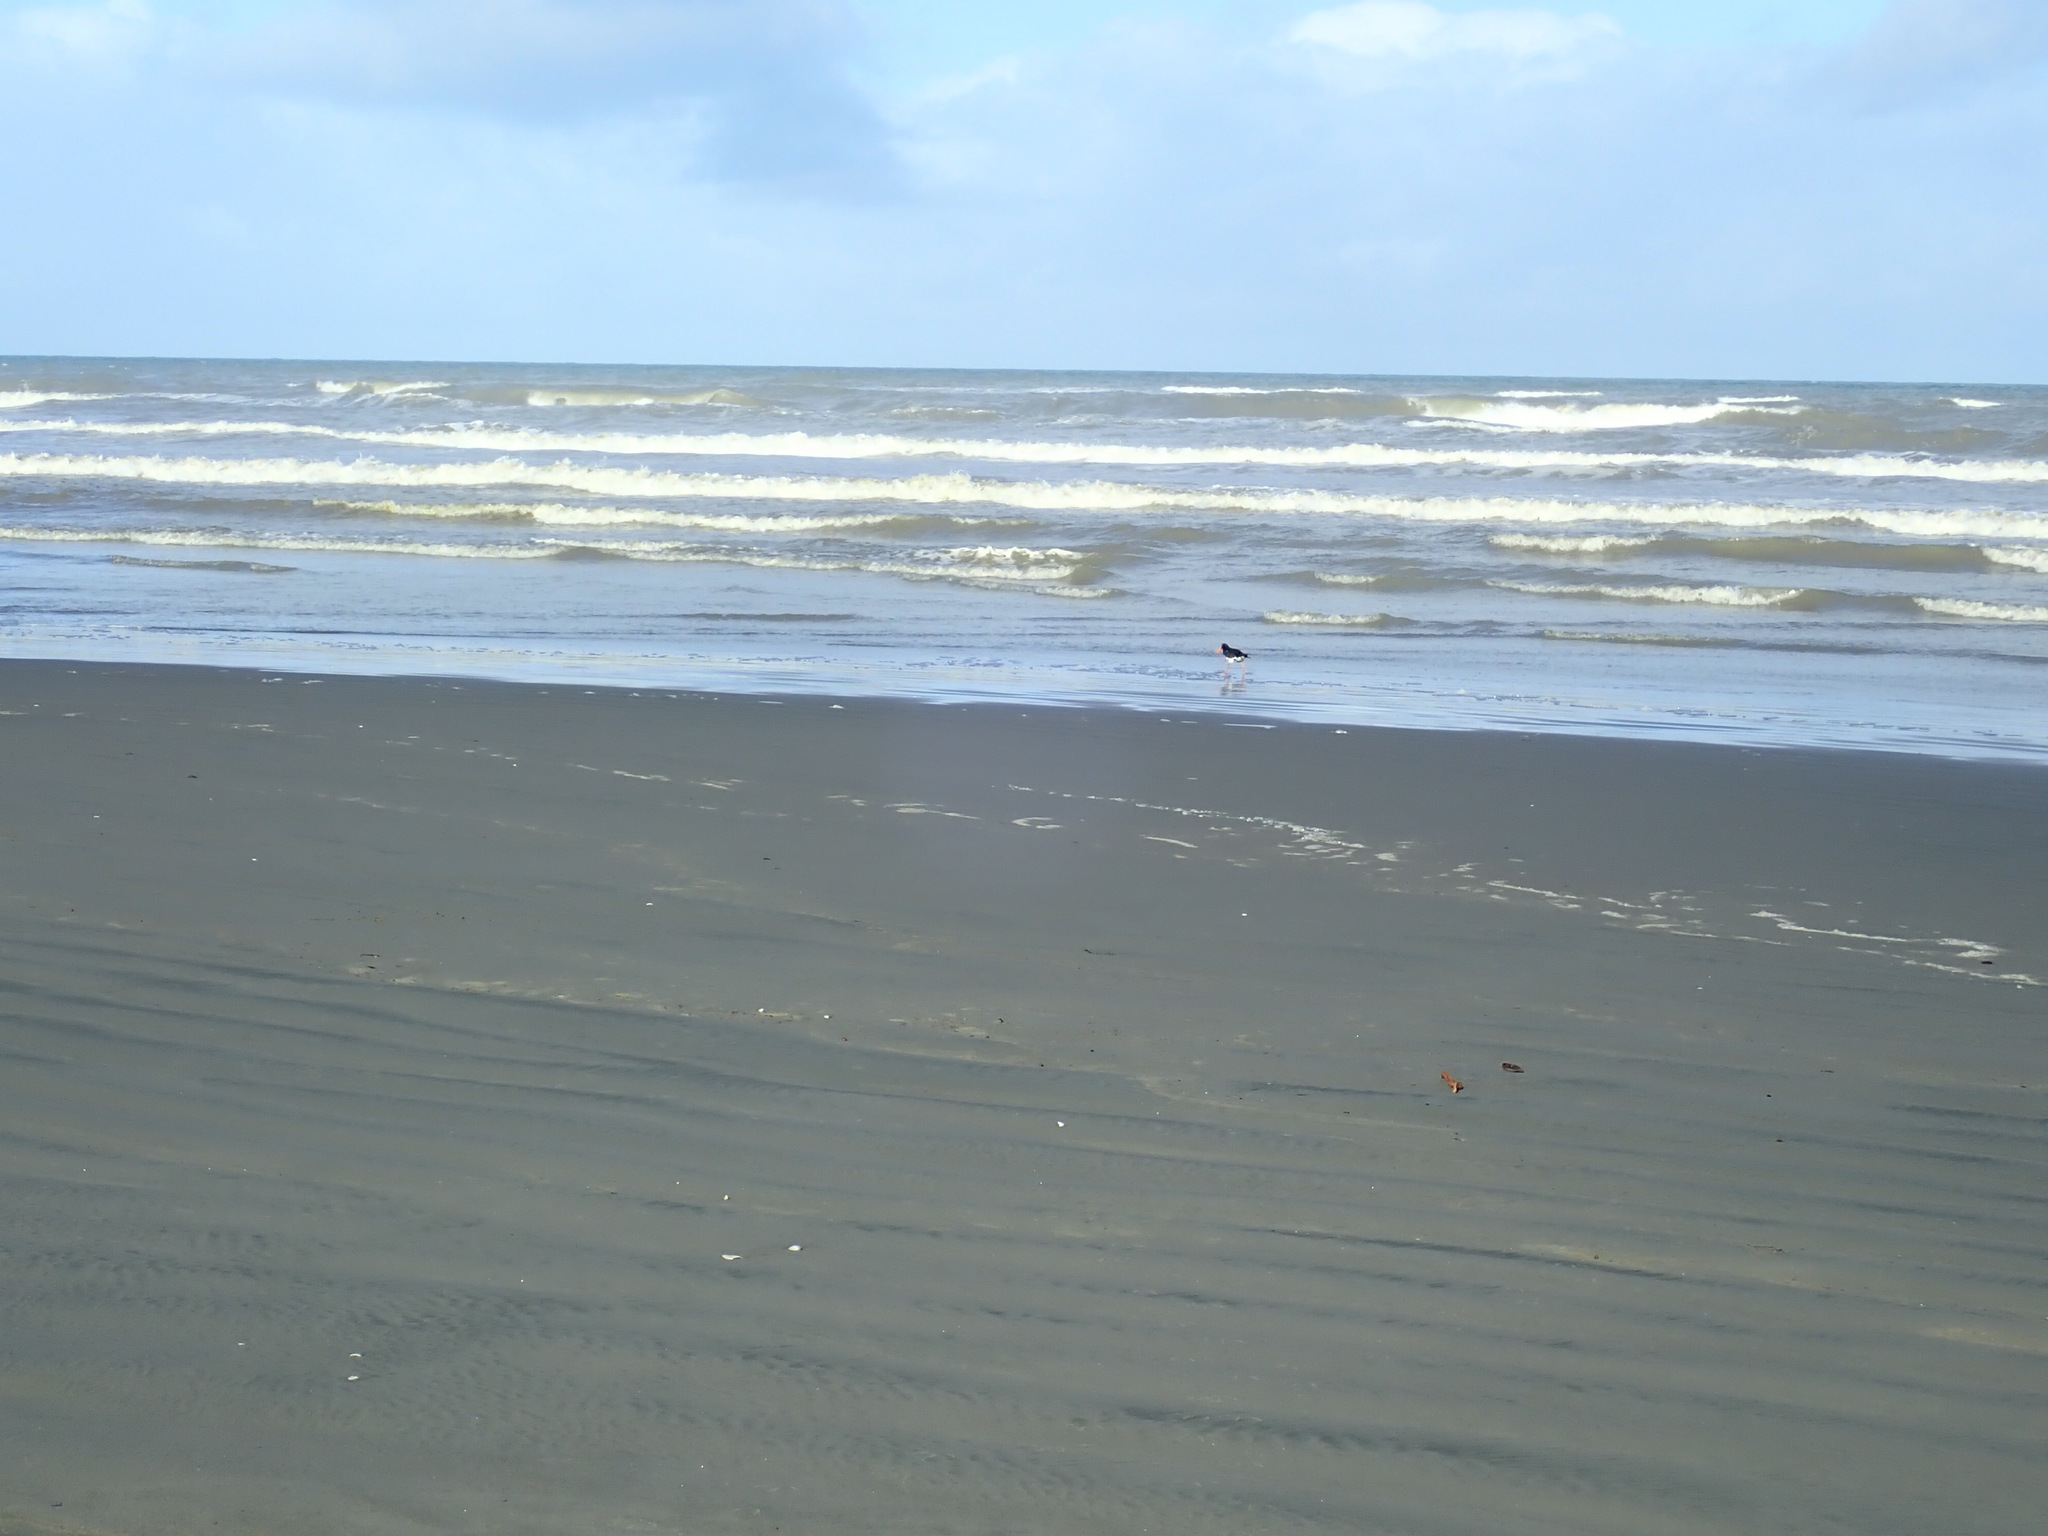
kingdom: Animalia
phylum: Chordata
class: Aves
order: Charadriiformes
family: Haematopodidae
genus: Haematopus
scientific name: Haematopus finschi
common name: South island oystercatcher
